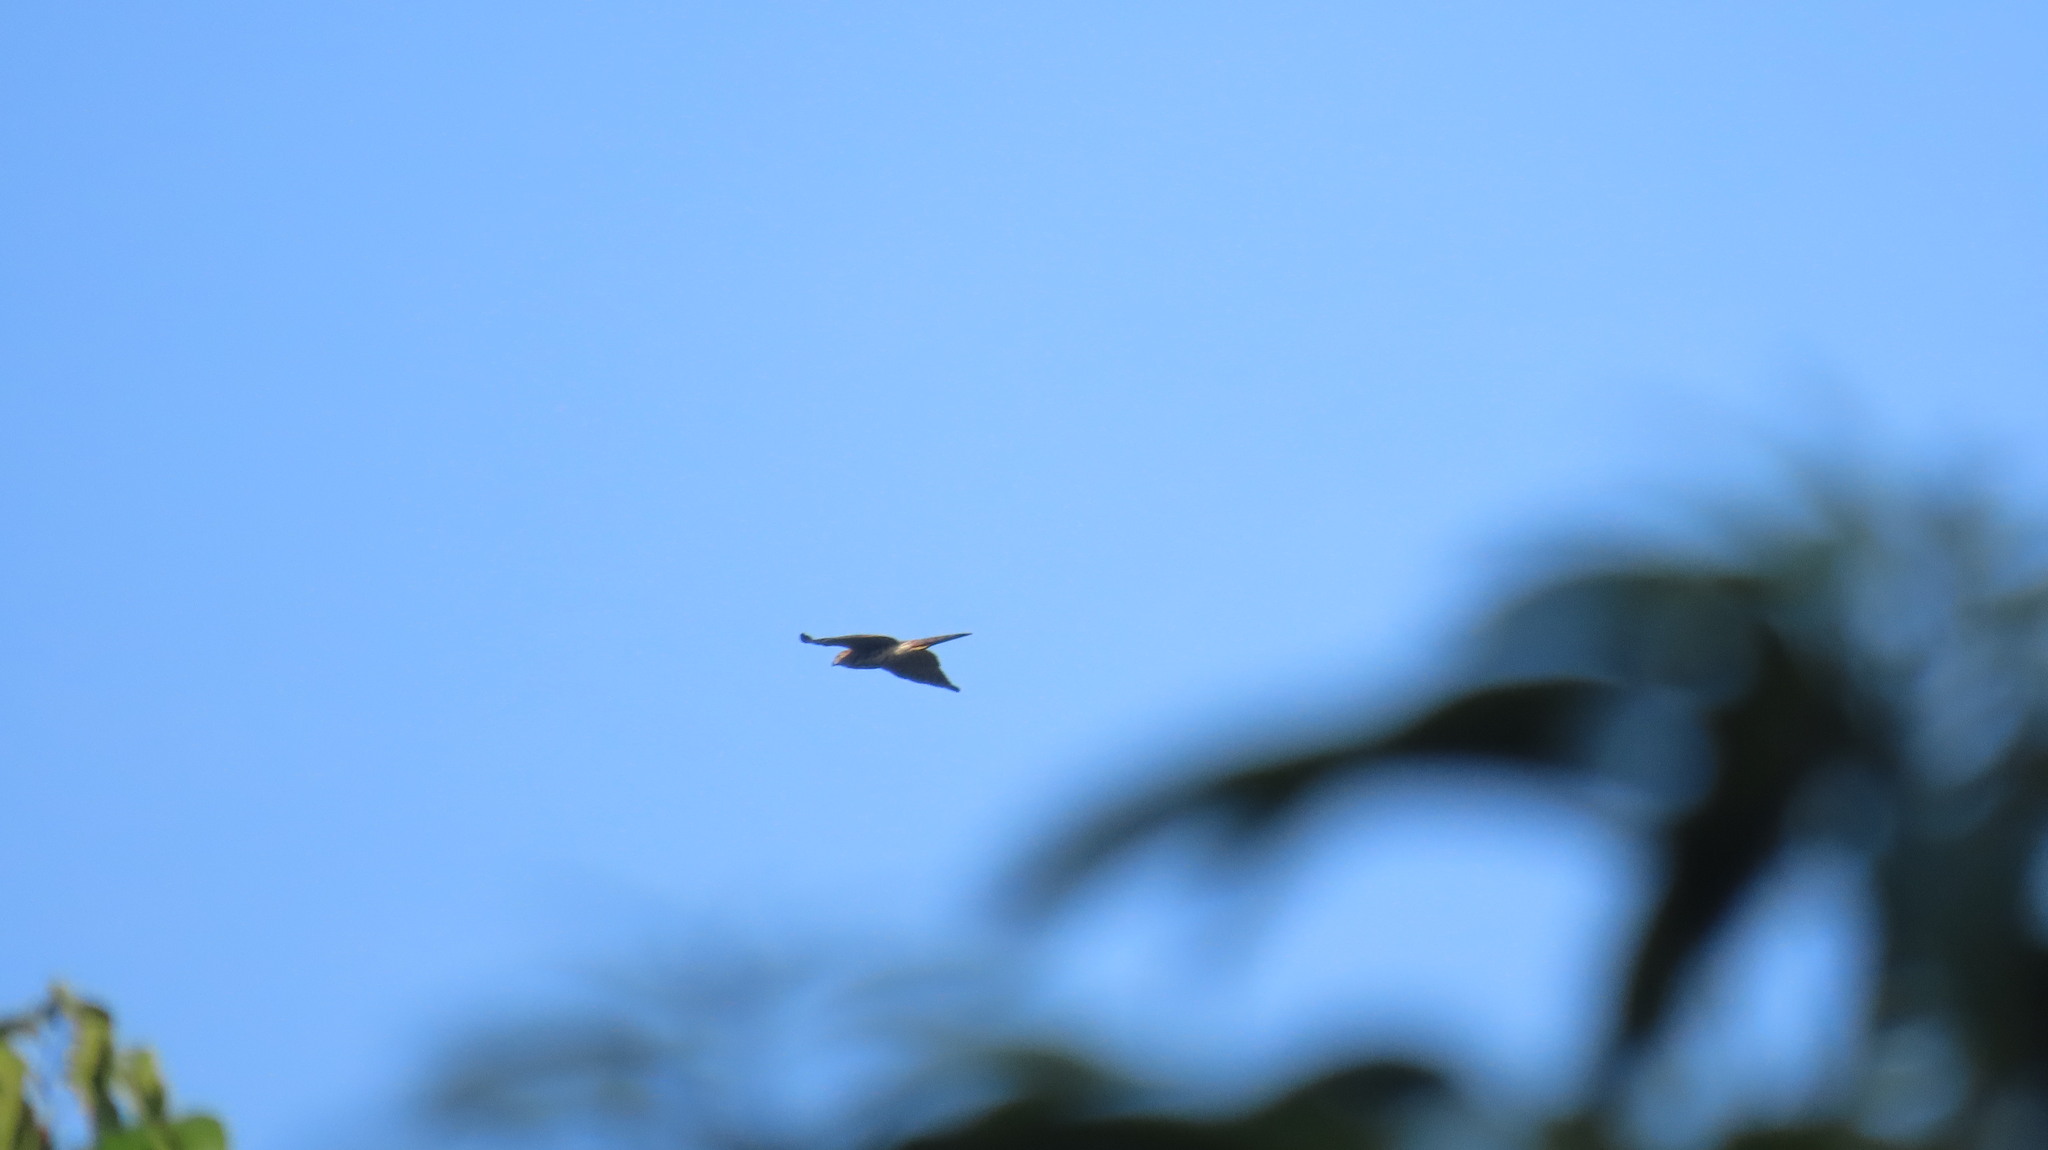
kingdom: Animalia
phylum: Chordata
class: Aves
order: Accipitriformes
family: Accipitridae
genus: Accipiter
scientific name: Accipiter badius
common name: Shikra
